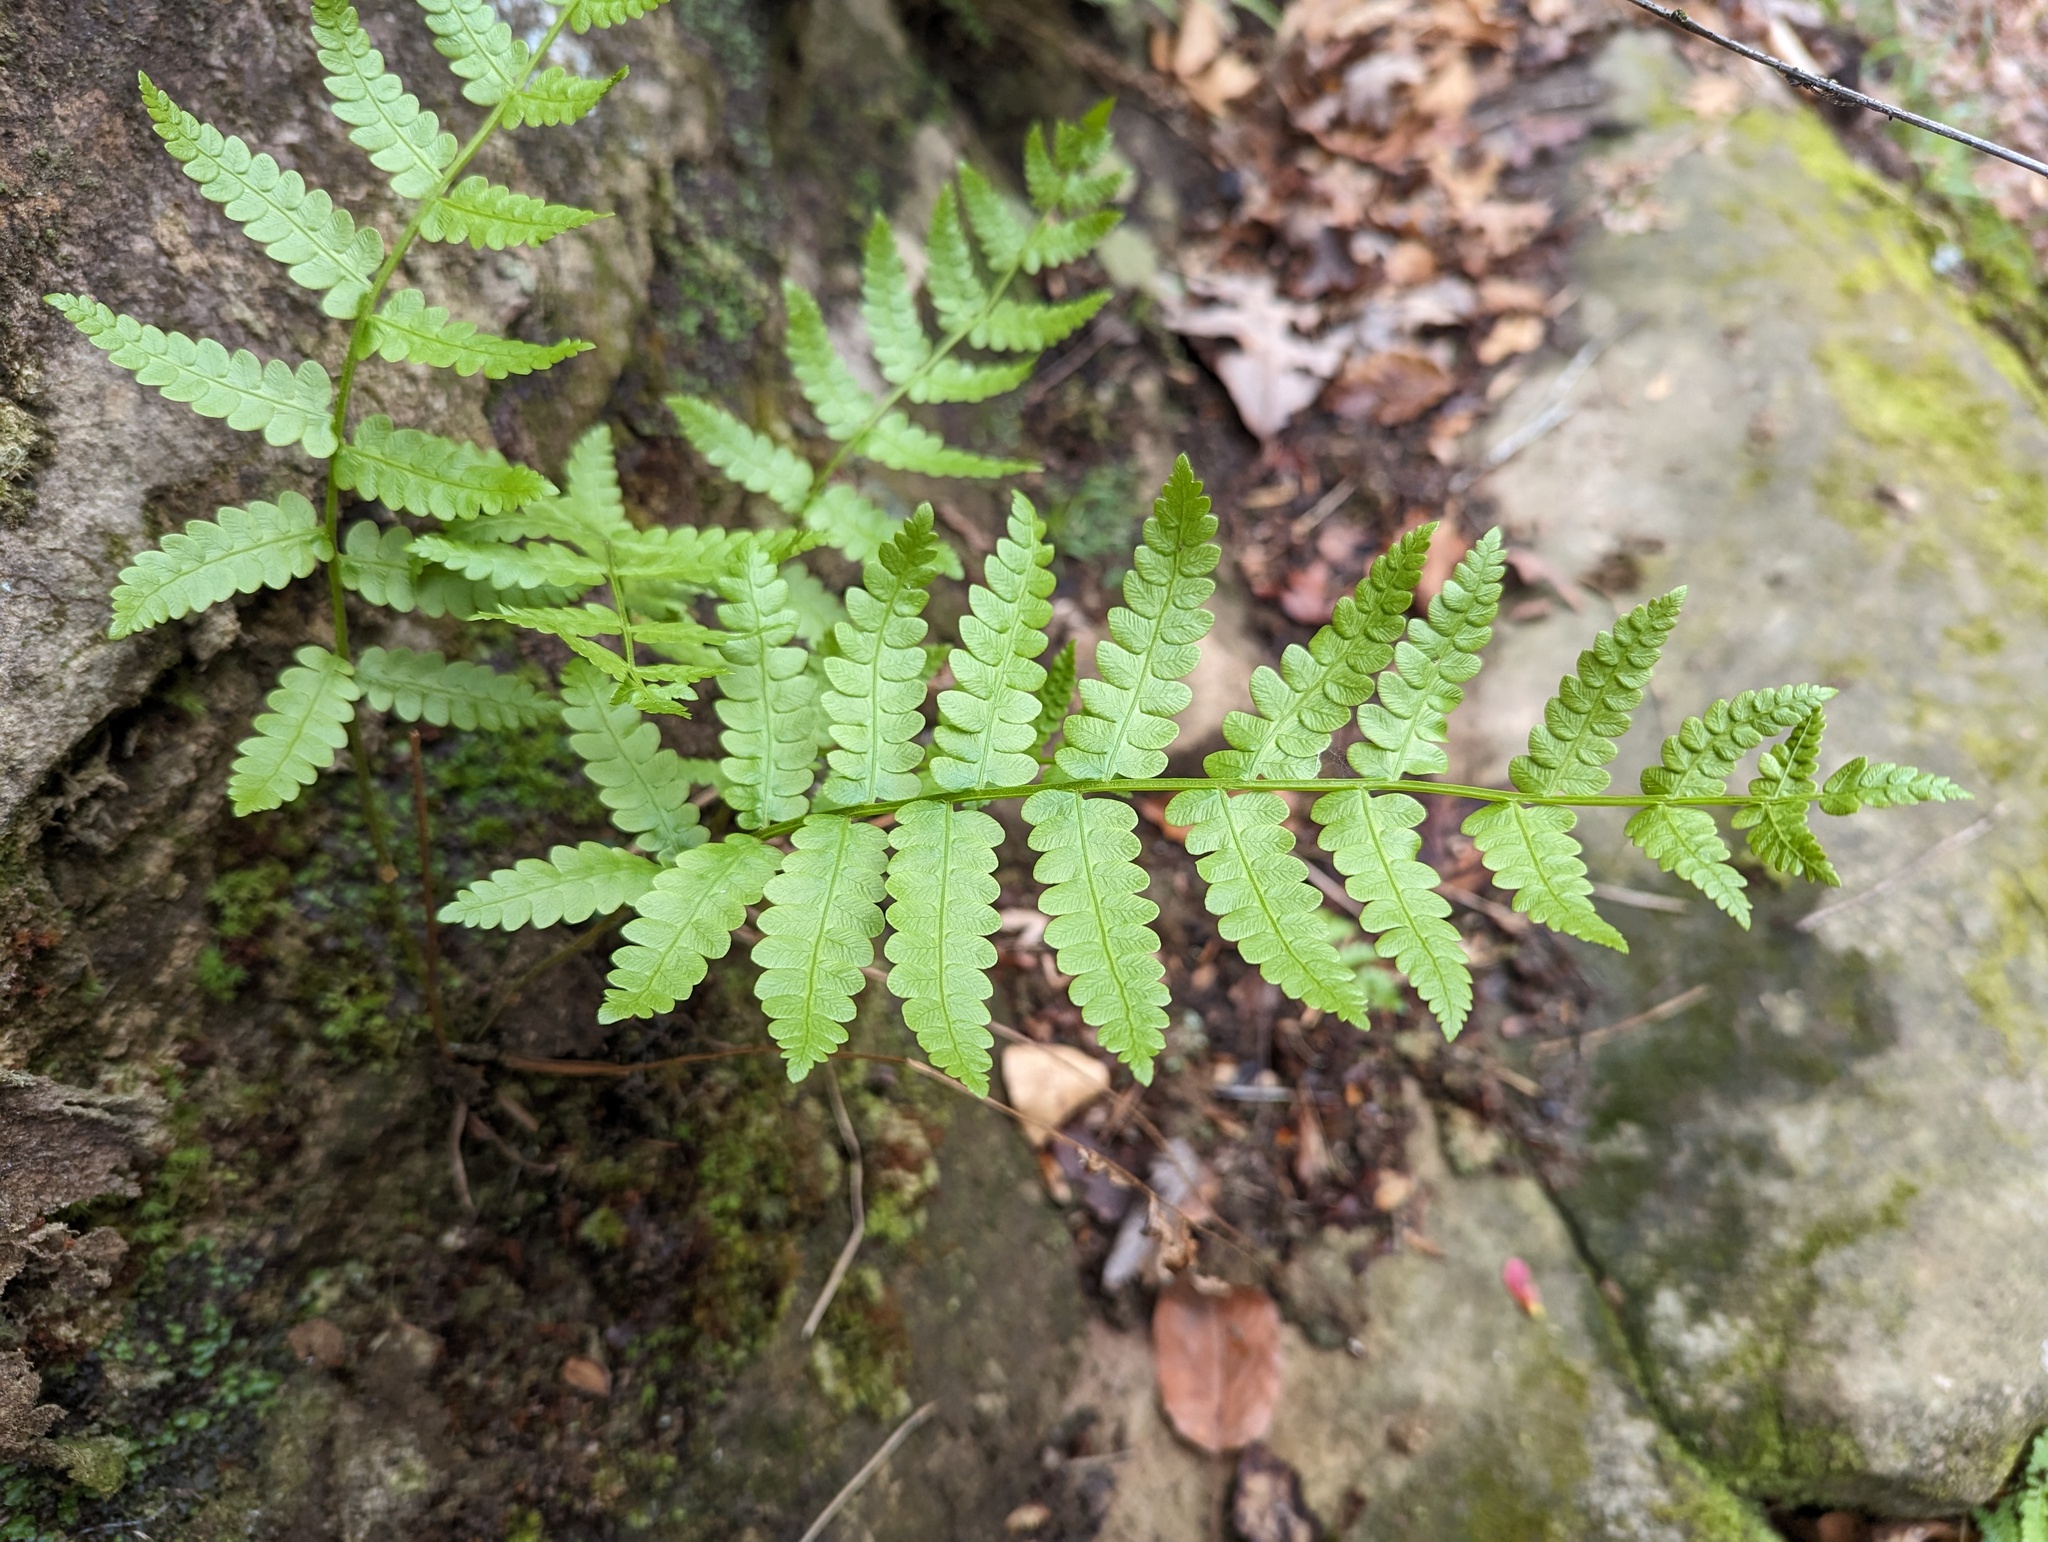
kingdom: Plantae
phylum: Tracheophyta
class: Polypodiopsida
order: Osmundales
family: Osmundaceae
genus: Osmundastrum
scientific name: Osmundastrum cinnamomeum
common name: Cinnamon fern
